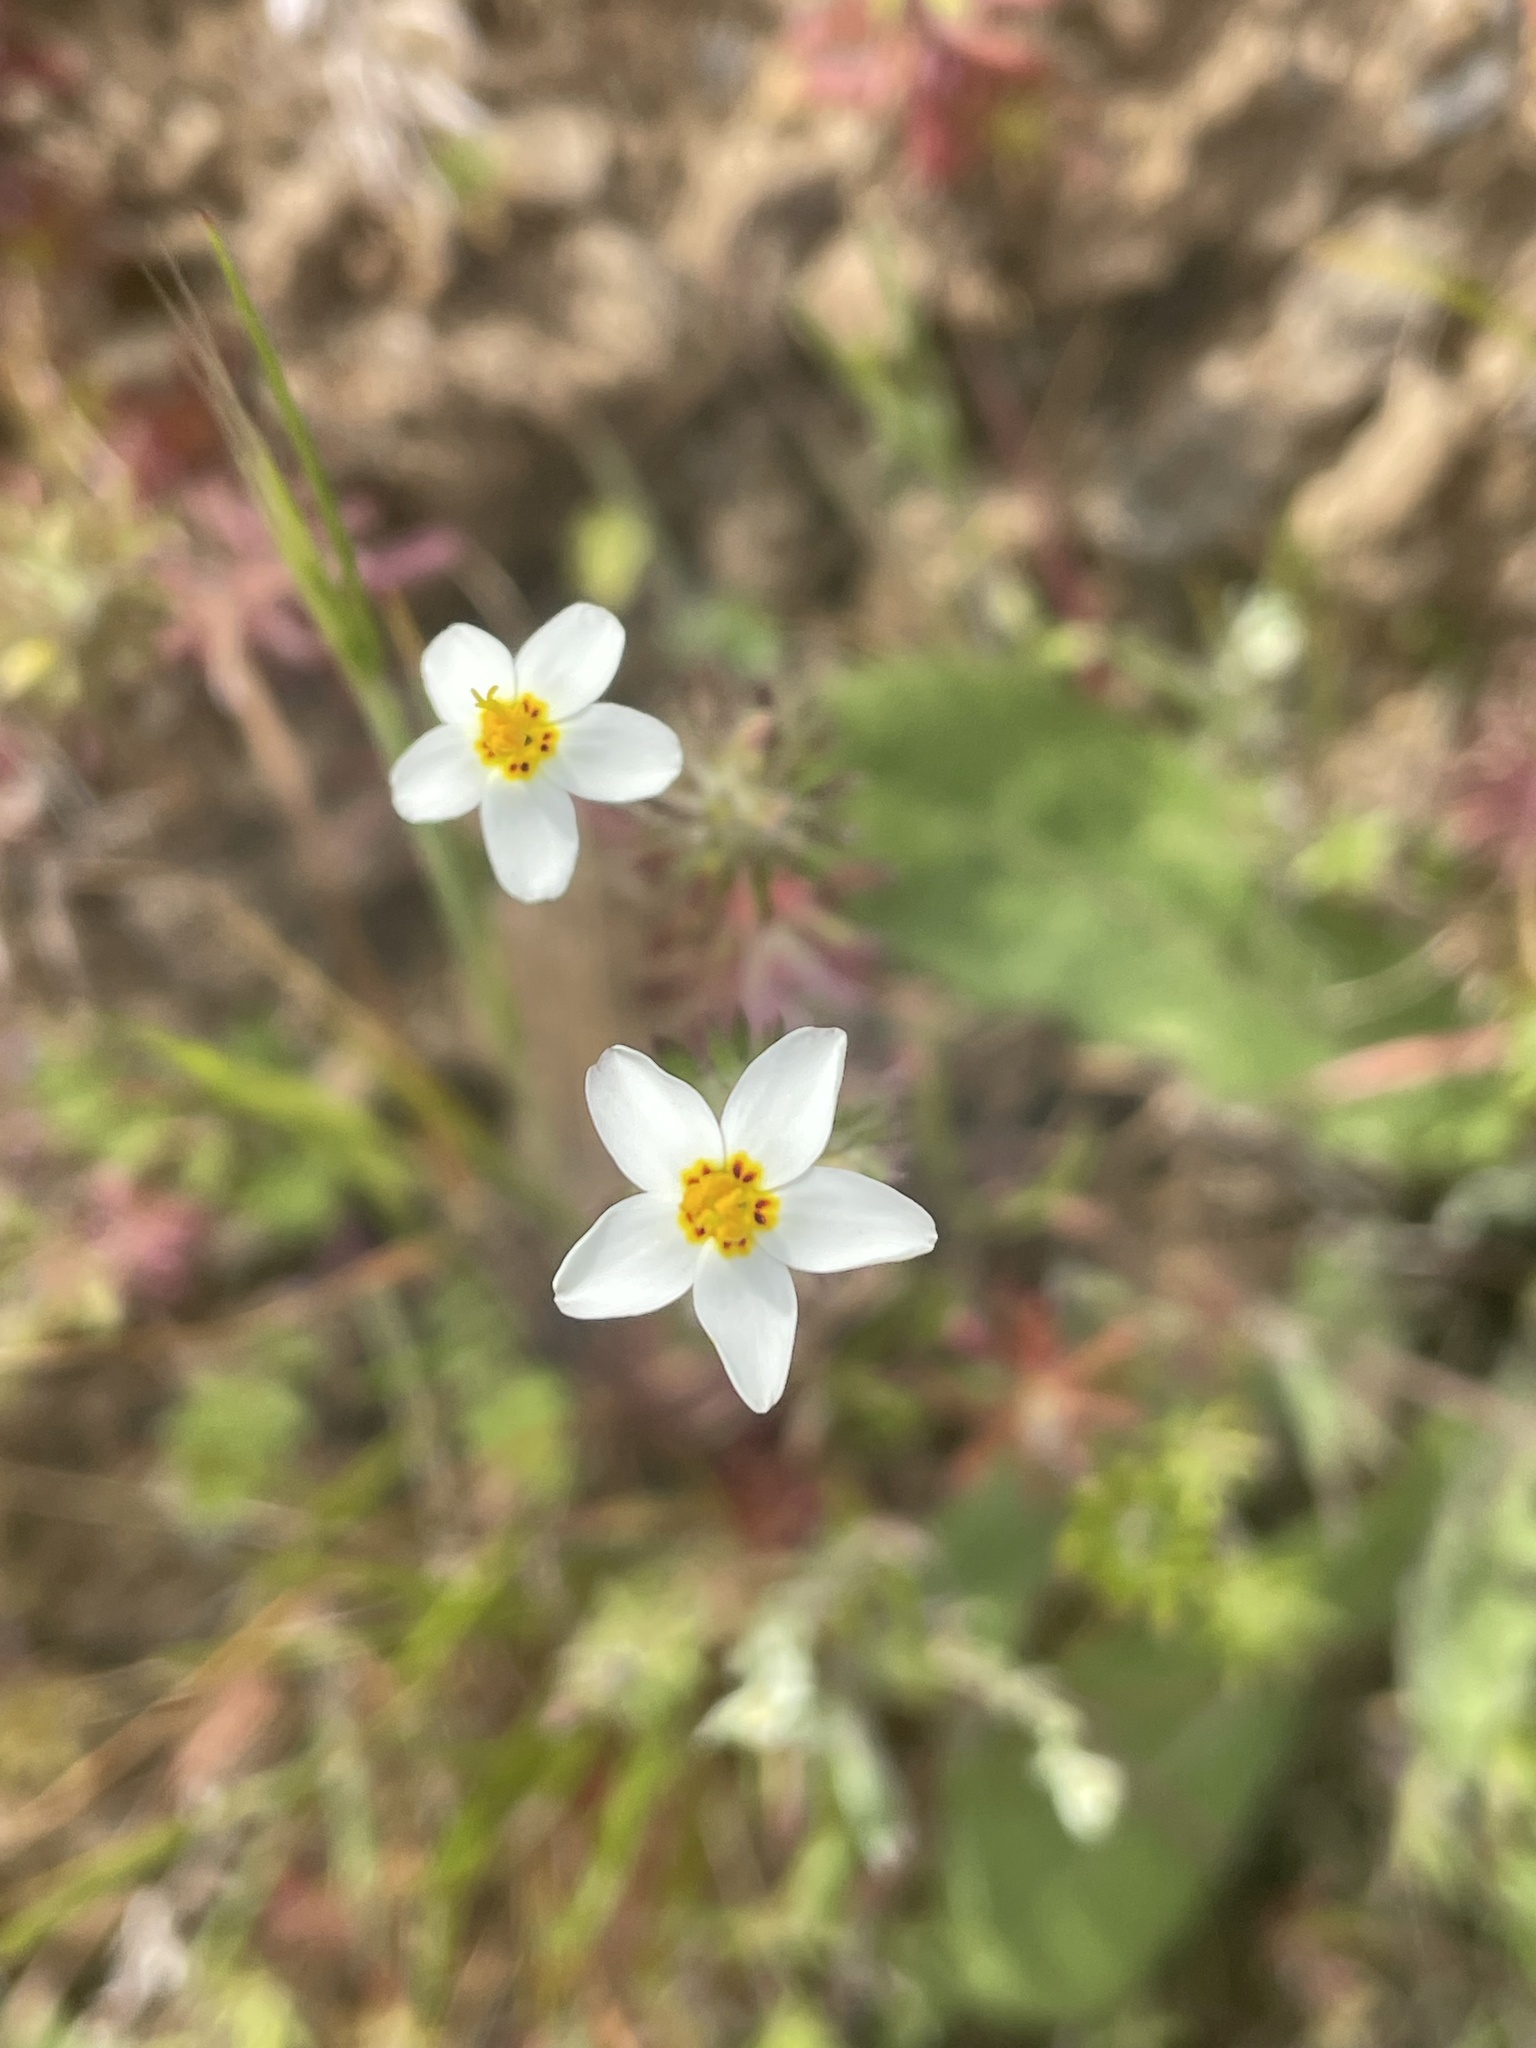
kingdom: Plantae
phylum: Tracheophyta
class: Magnoliopsida
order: Ericales
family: Polemoniaceae
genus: Leptosiphon
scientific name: Leptosiphon parviflorus
